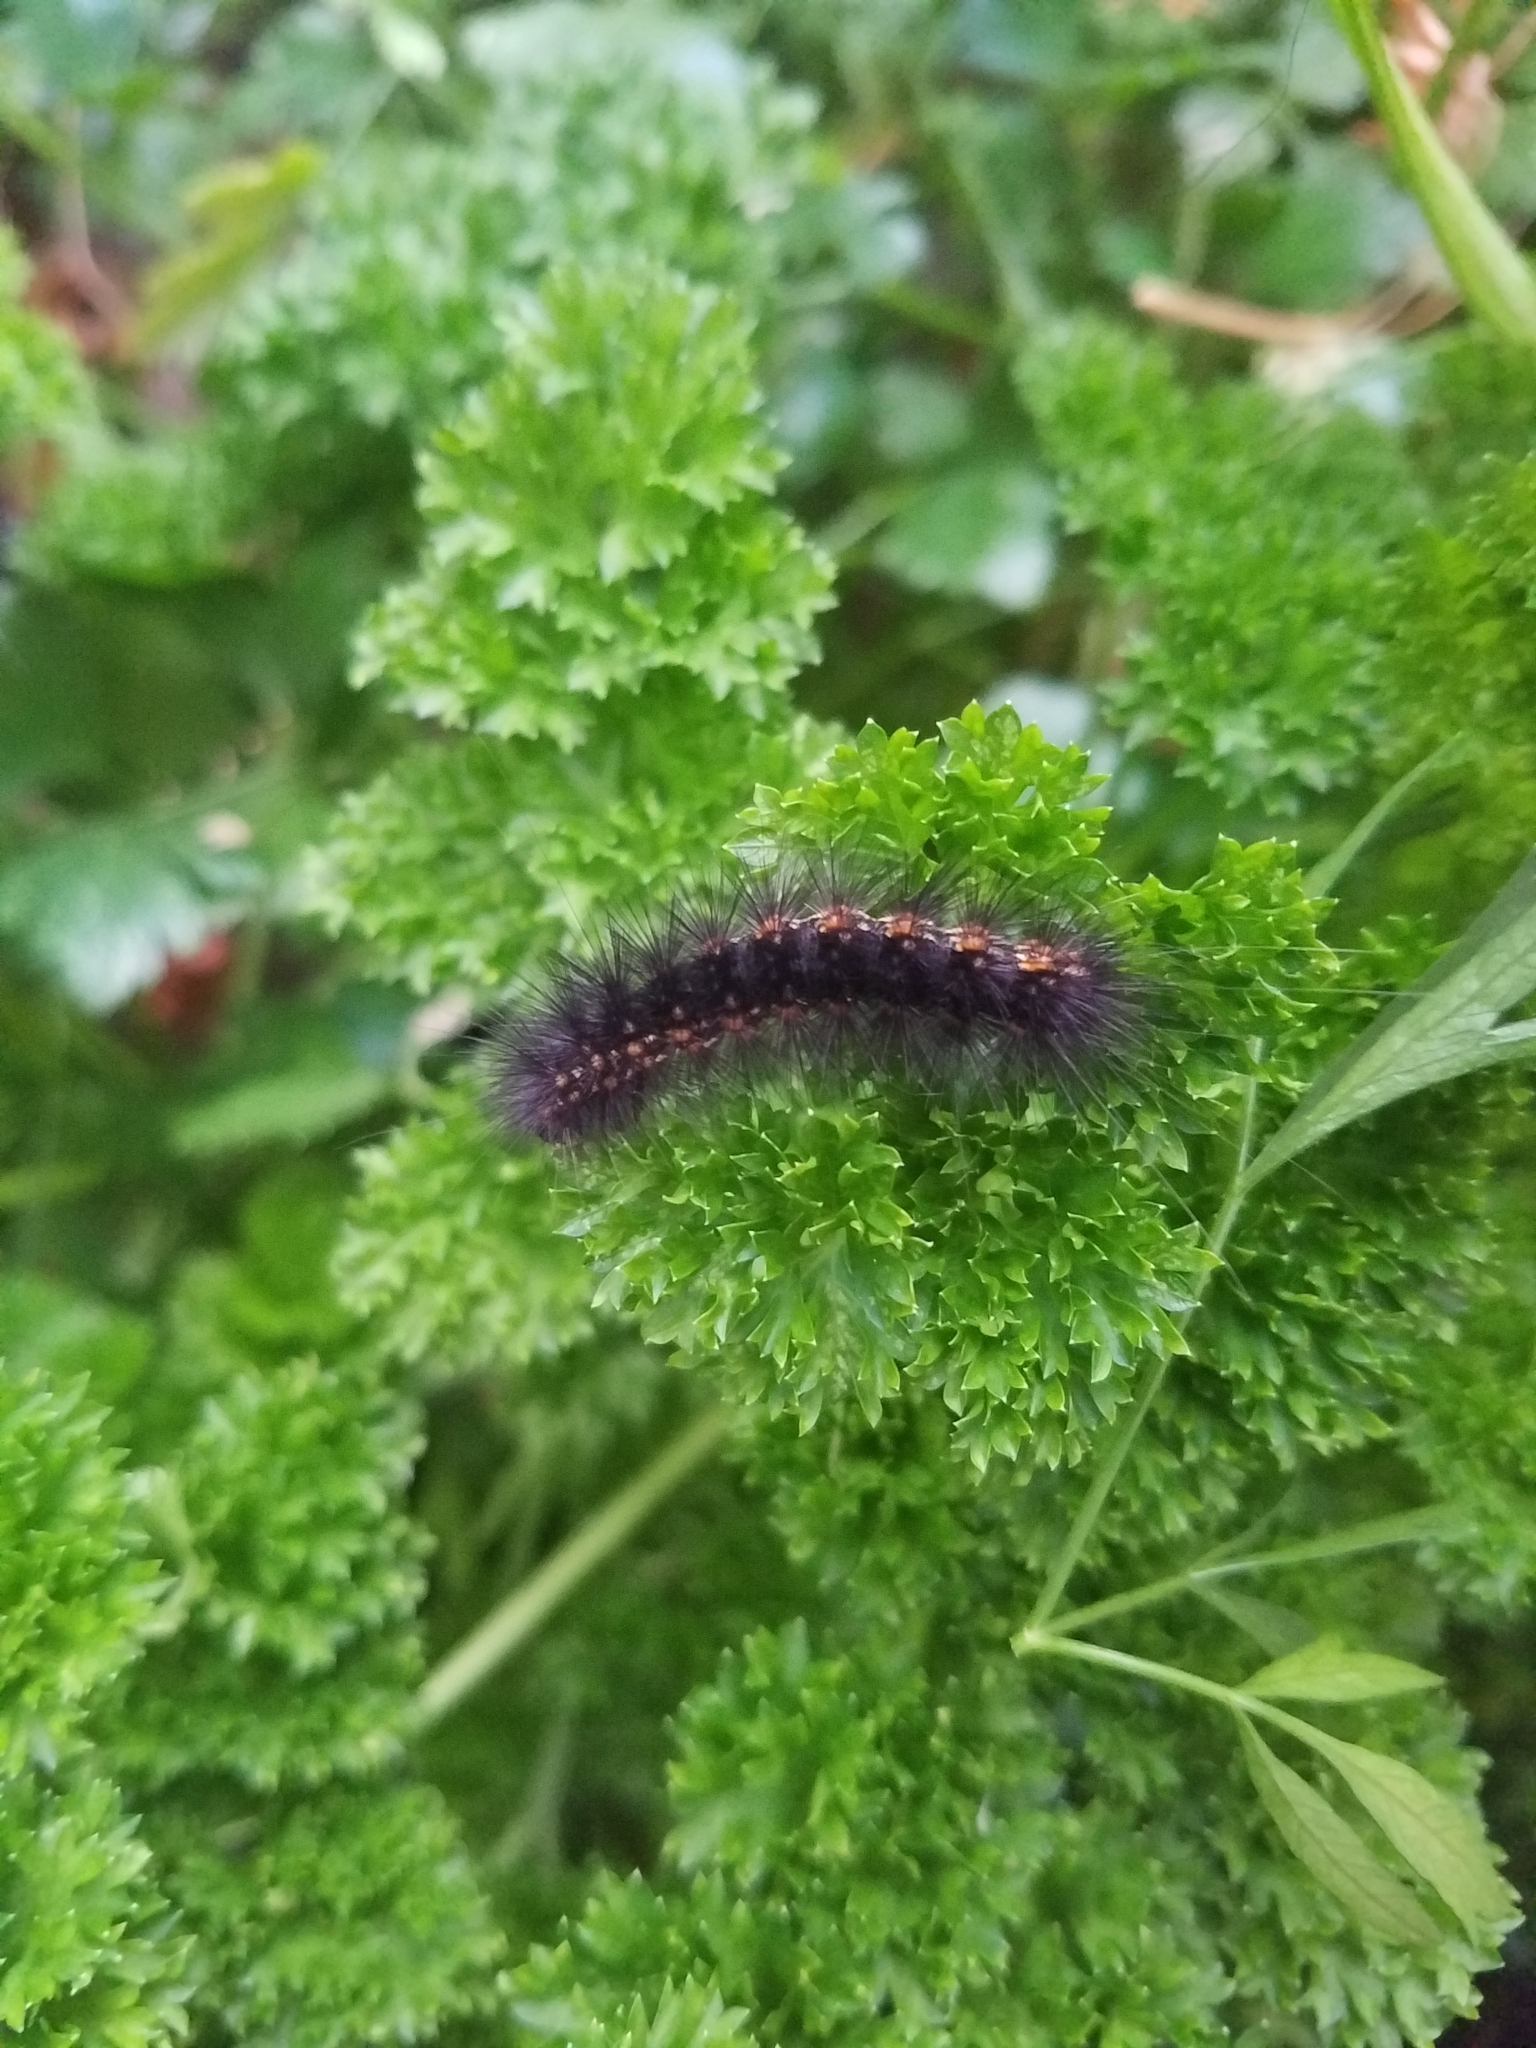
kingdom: Animalia
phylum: Arthropoda
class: Insecta
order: Lepidoptera
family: Erebidae
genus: Estigmene
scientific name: Estigmene acrea
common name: Salt marsh moth
